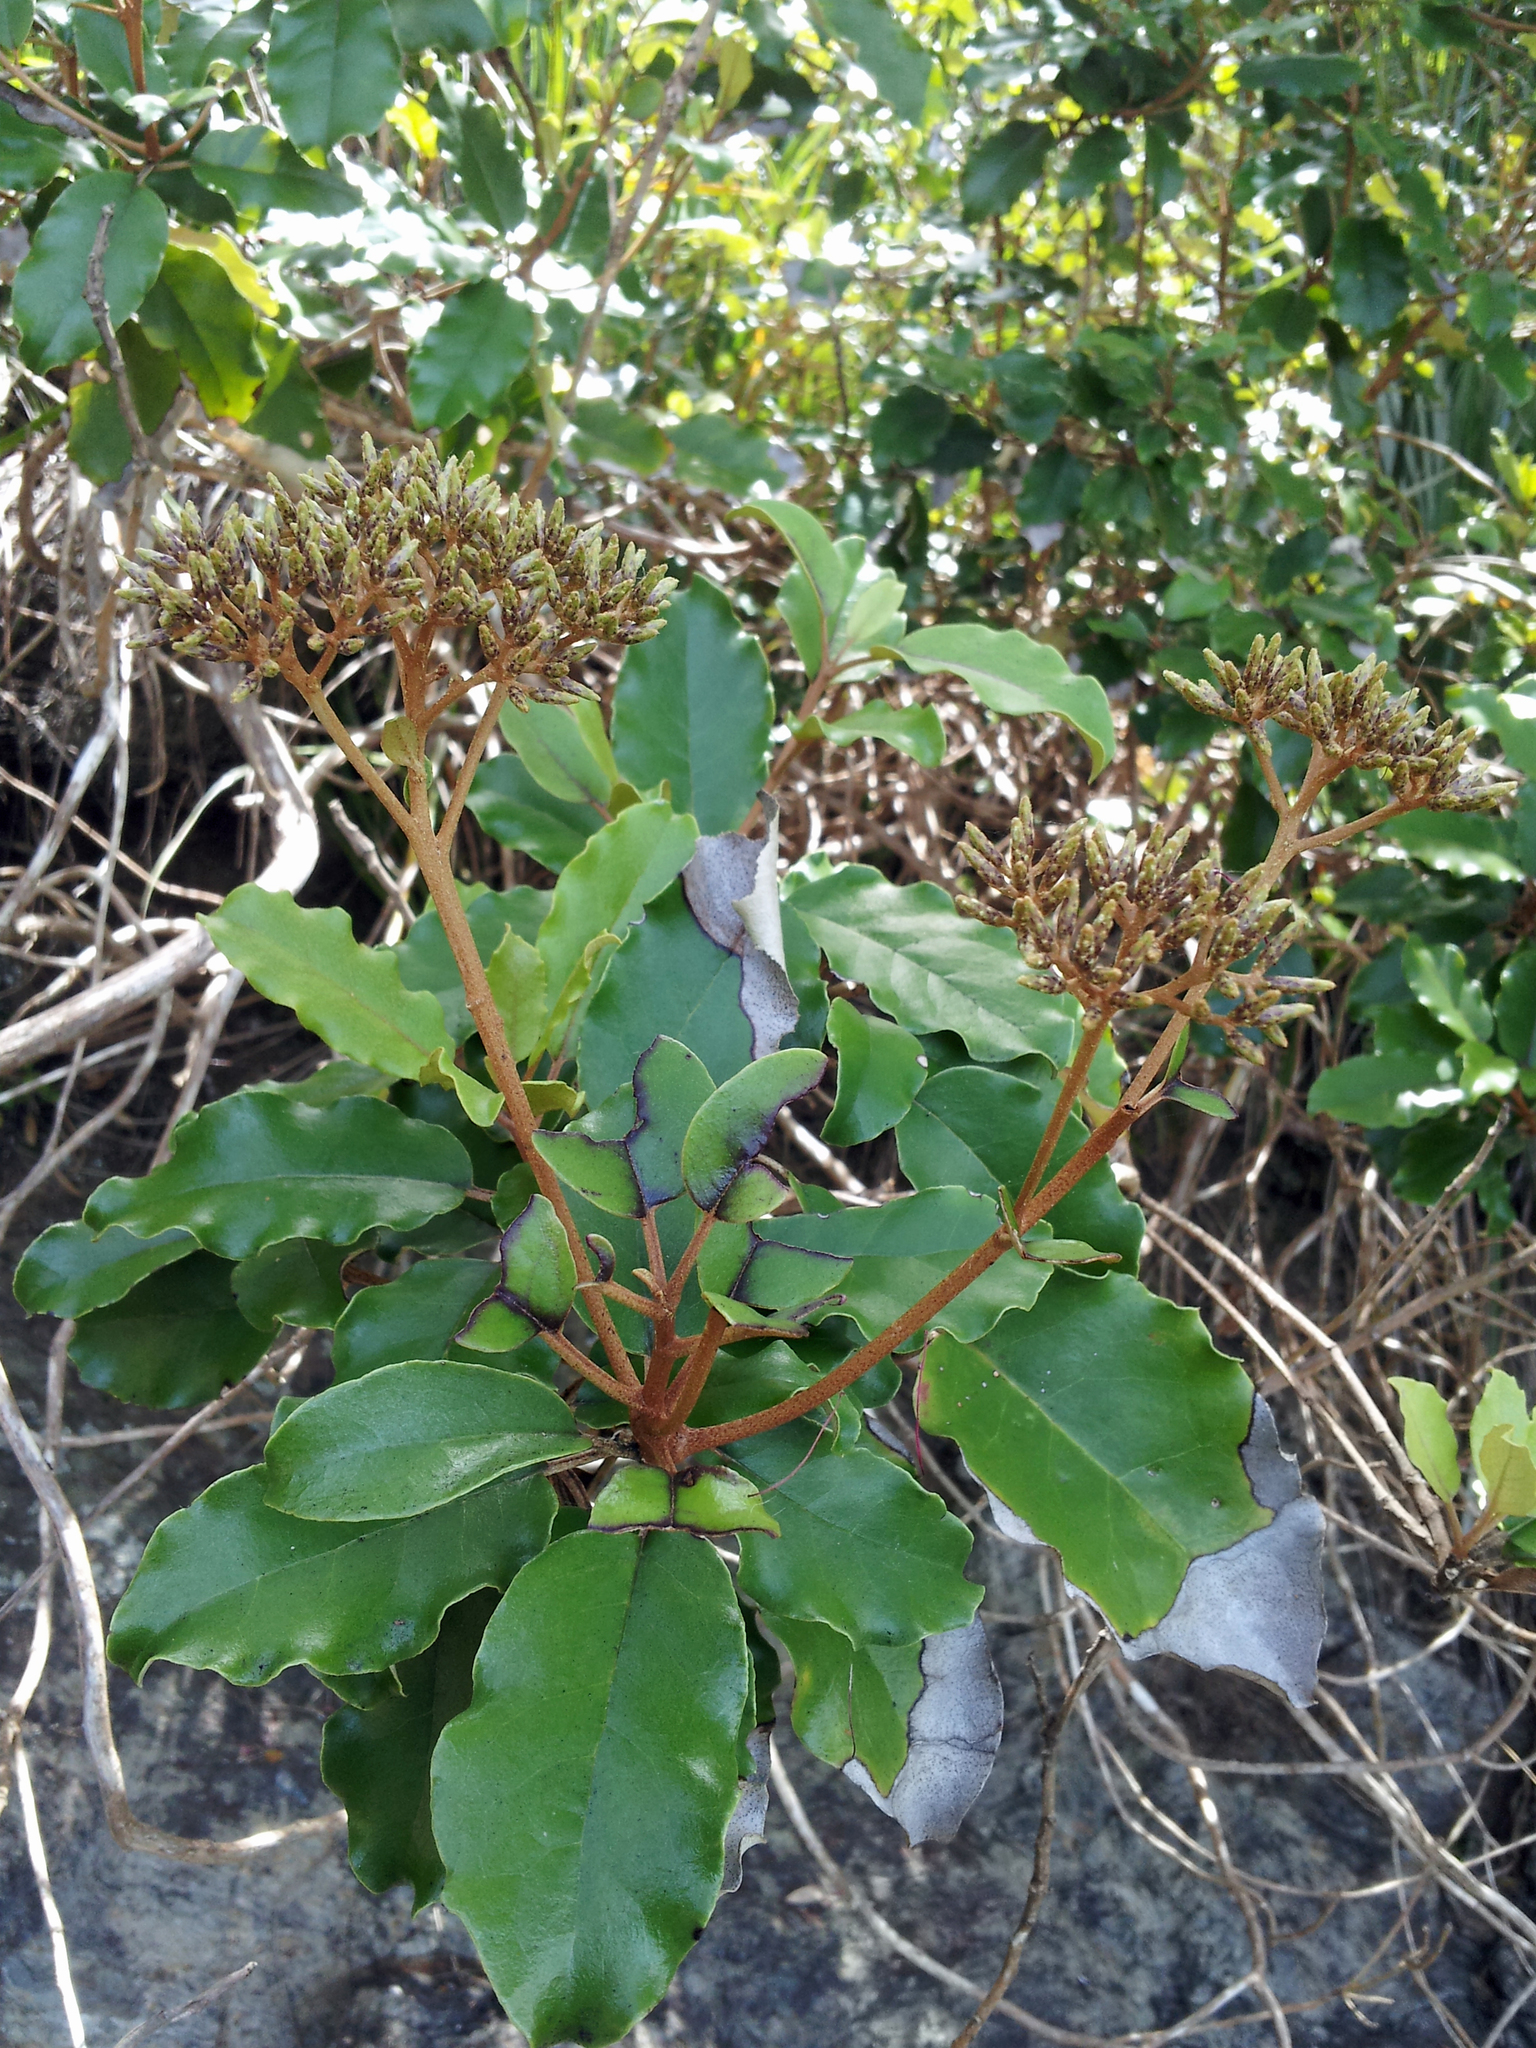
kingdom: Plantae
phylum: Tracheophyta
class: Magnoliopsida
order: Asterales
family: Asteraceae
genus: Olearia
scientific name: Olearia furfuracea
